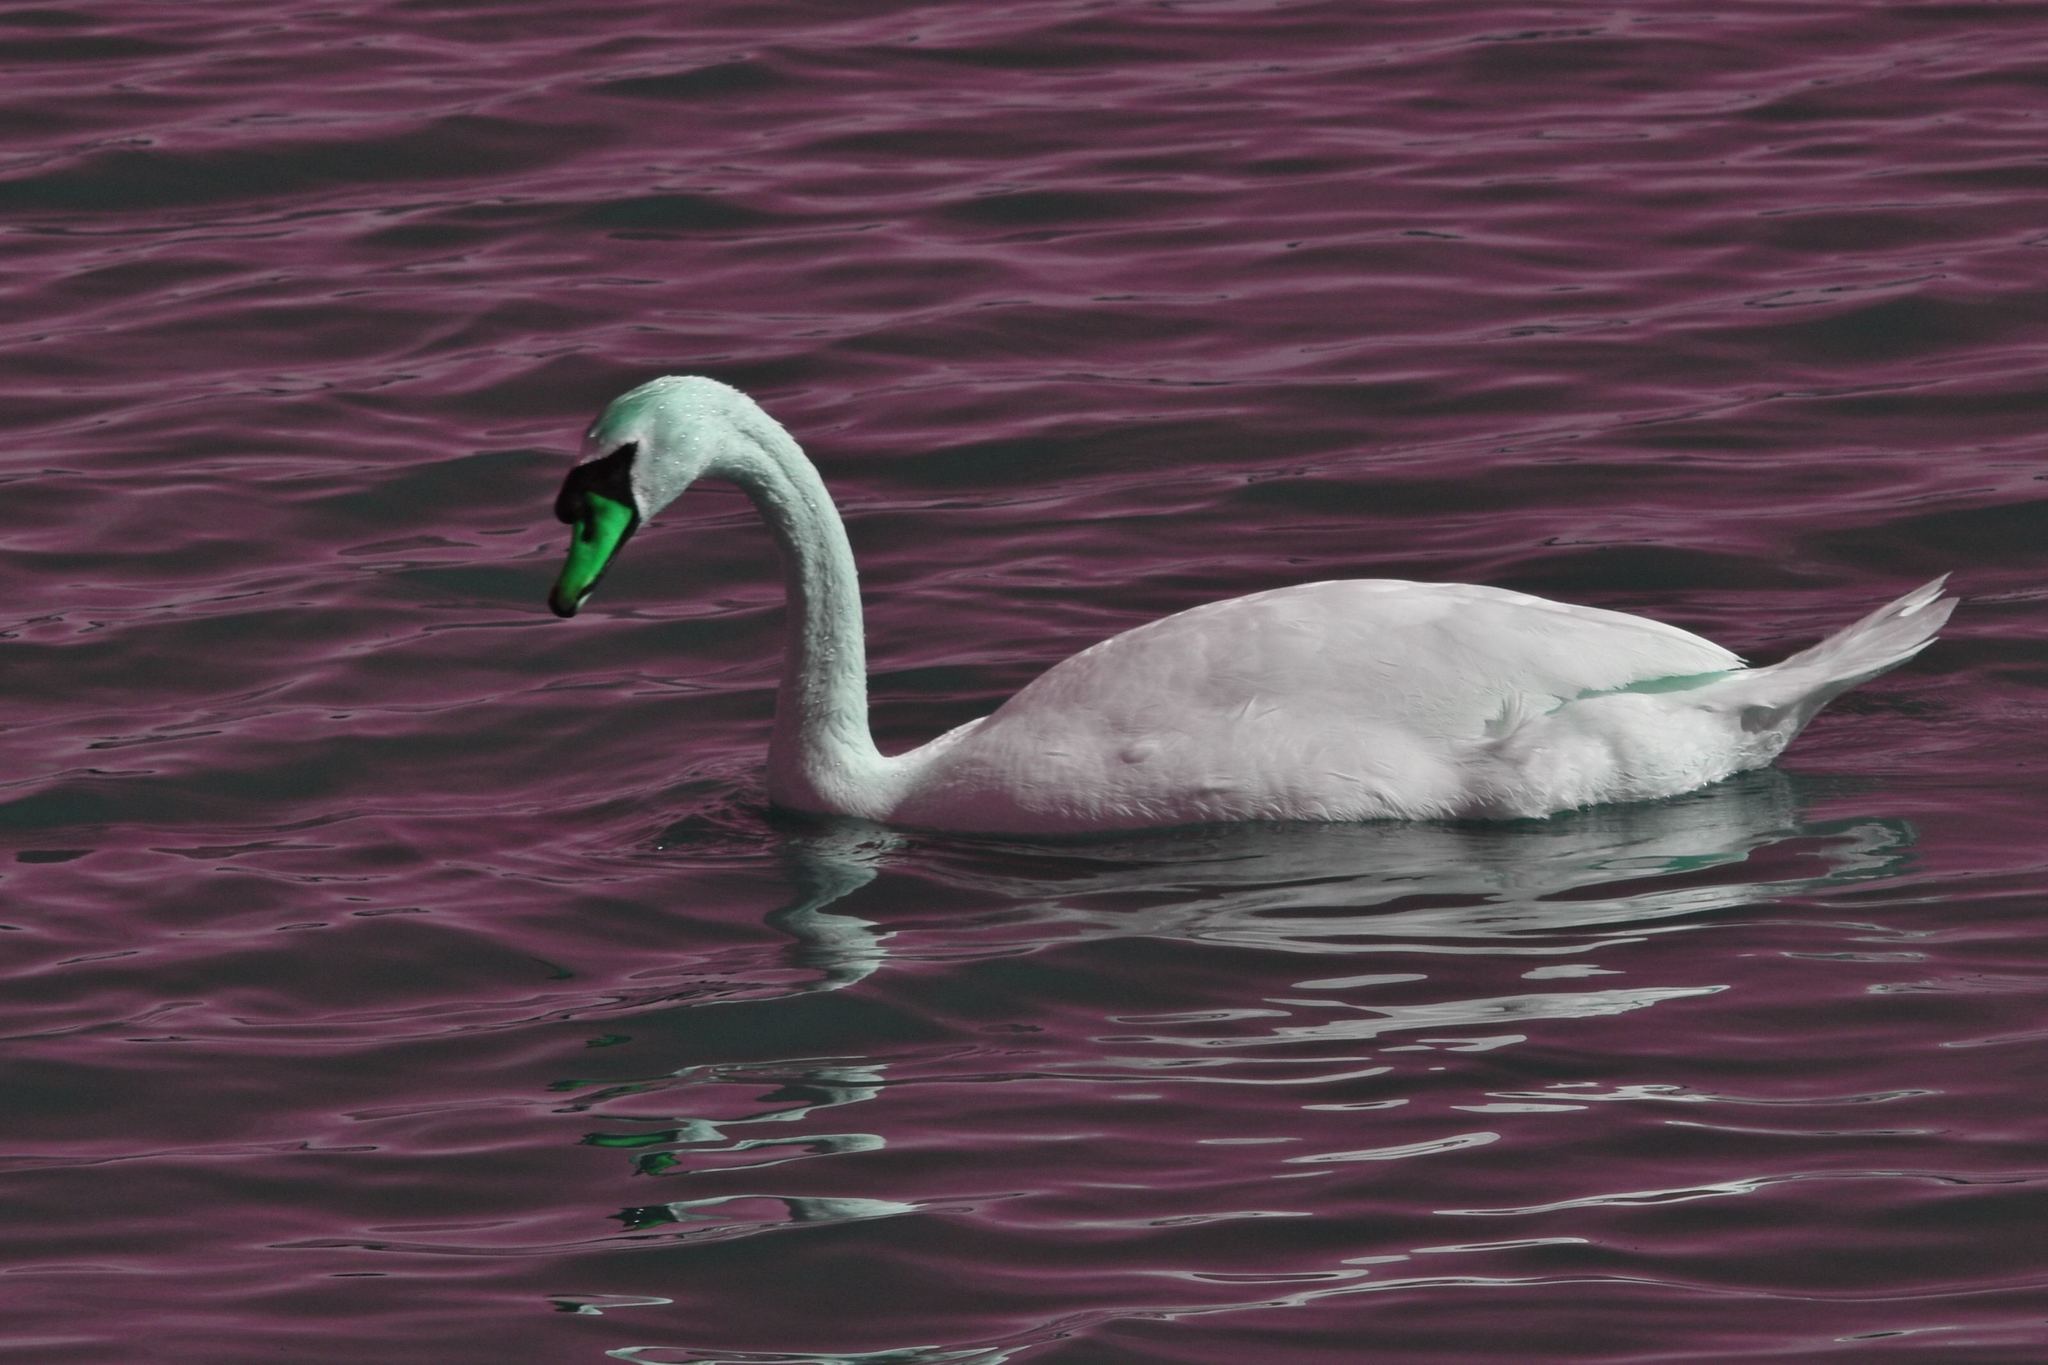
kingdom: Animalia
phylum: Chordata
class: Aves
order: Anseriformes
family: Anatidae
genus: Cygnus
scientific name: Cygnus olor
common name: Mute swan
